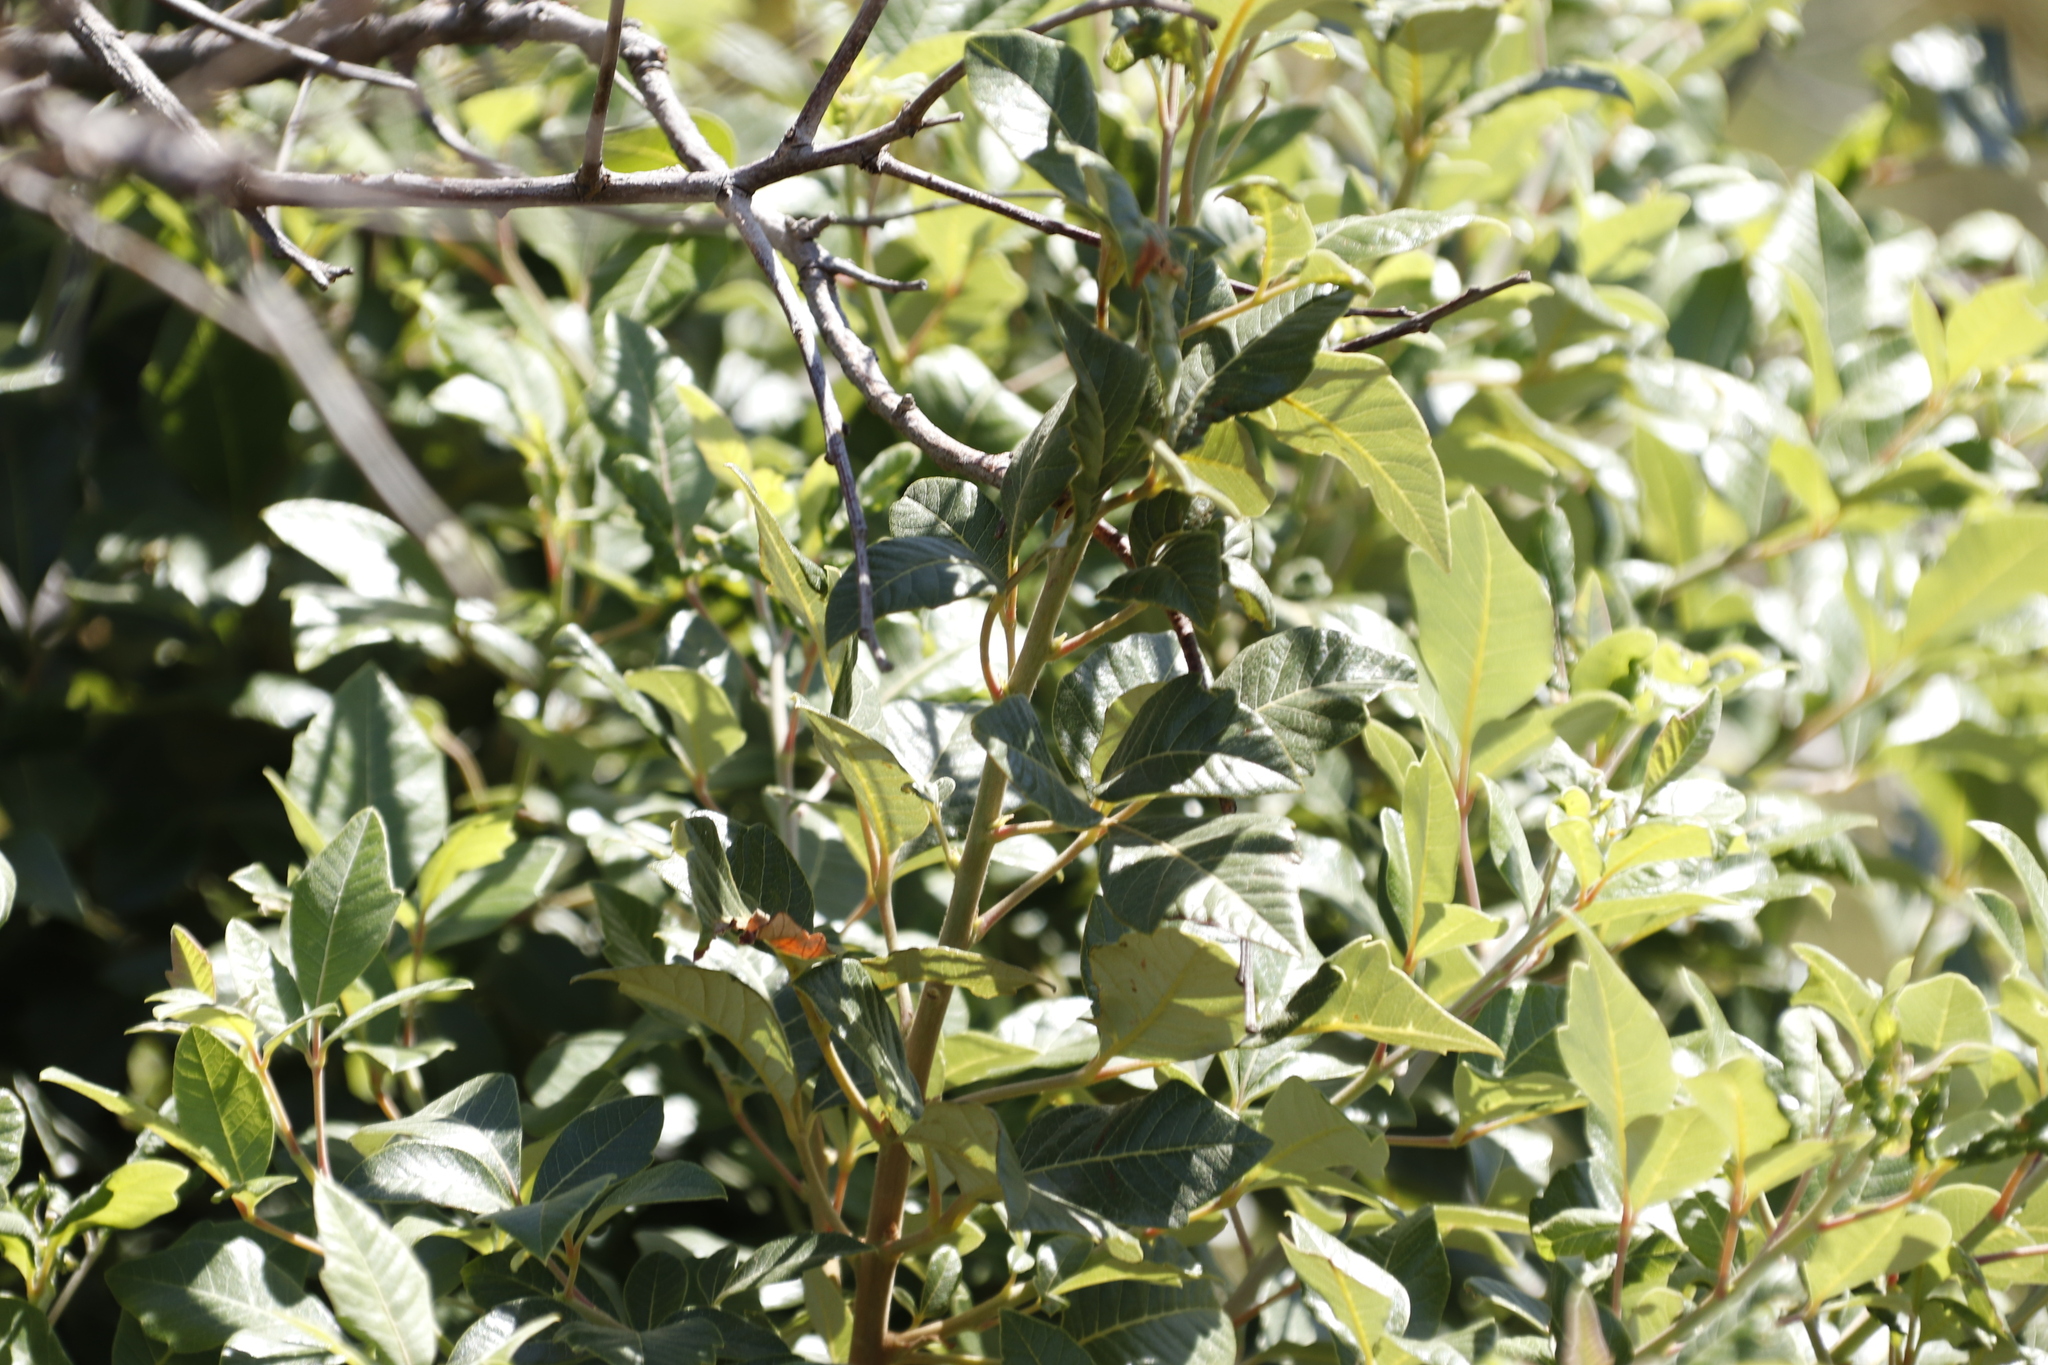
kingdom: Plantae
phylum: Tracheophyta
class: Magnoliopsida
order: Sapindales
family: Anacardiaceae
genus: Searsia
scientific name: Searsia tomentosa
